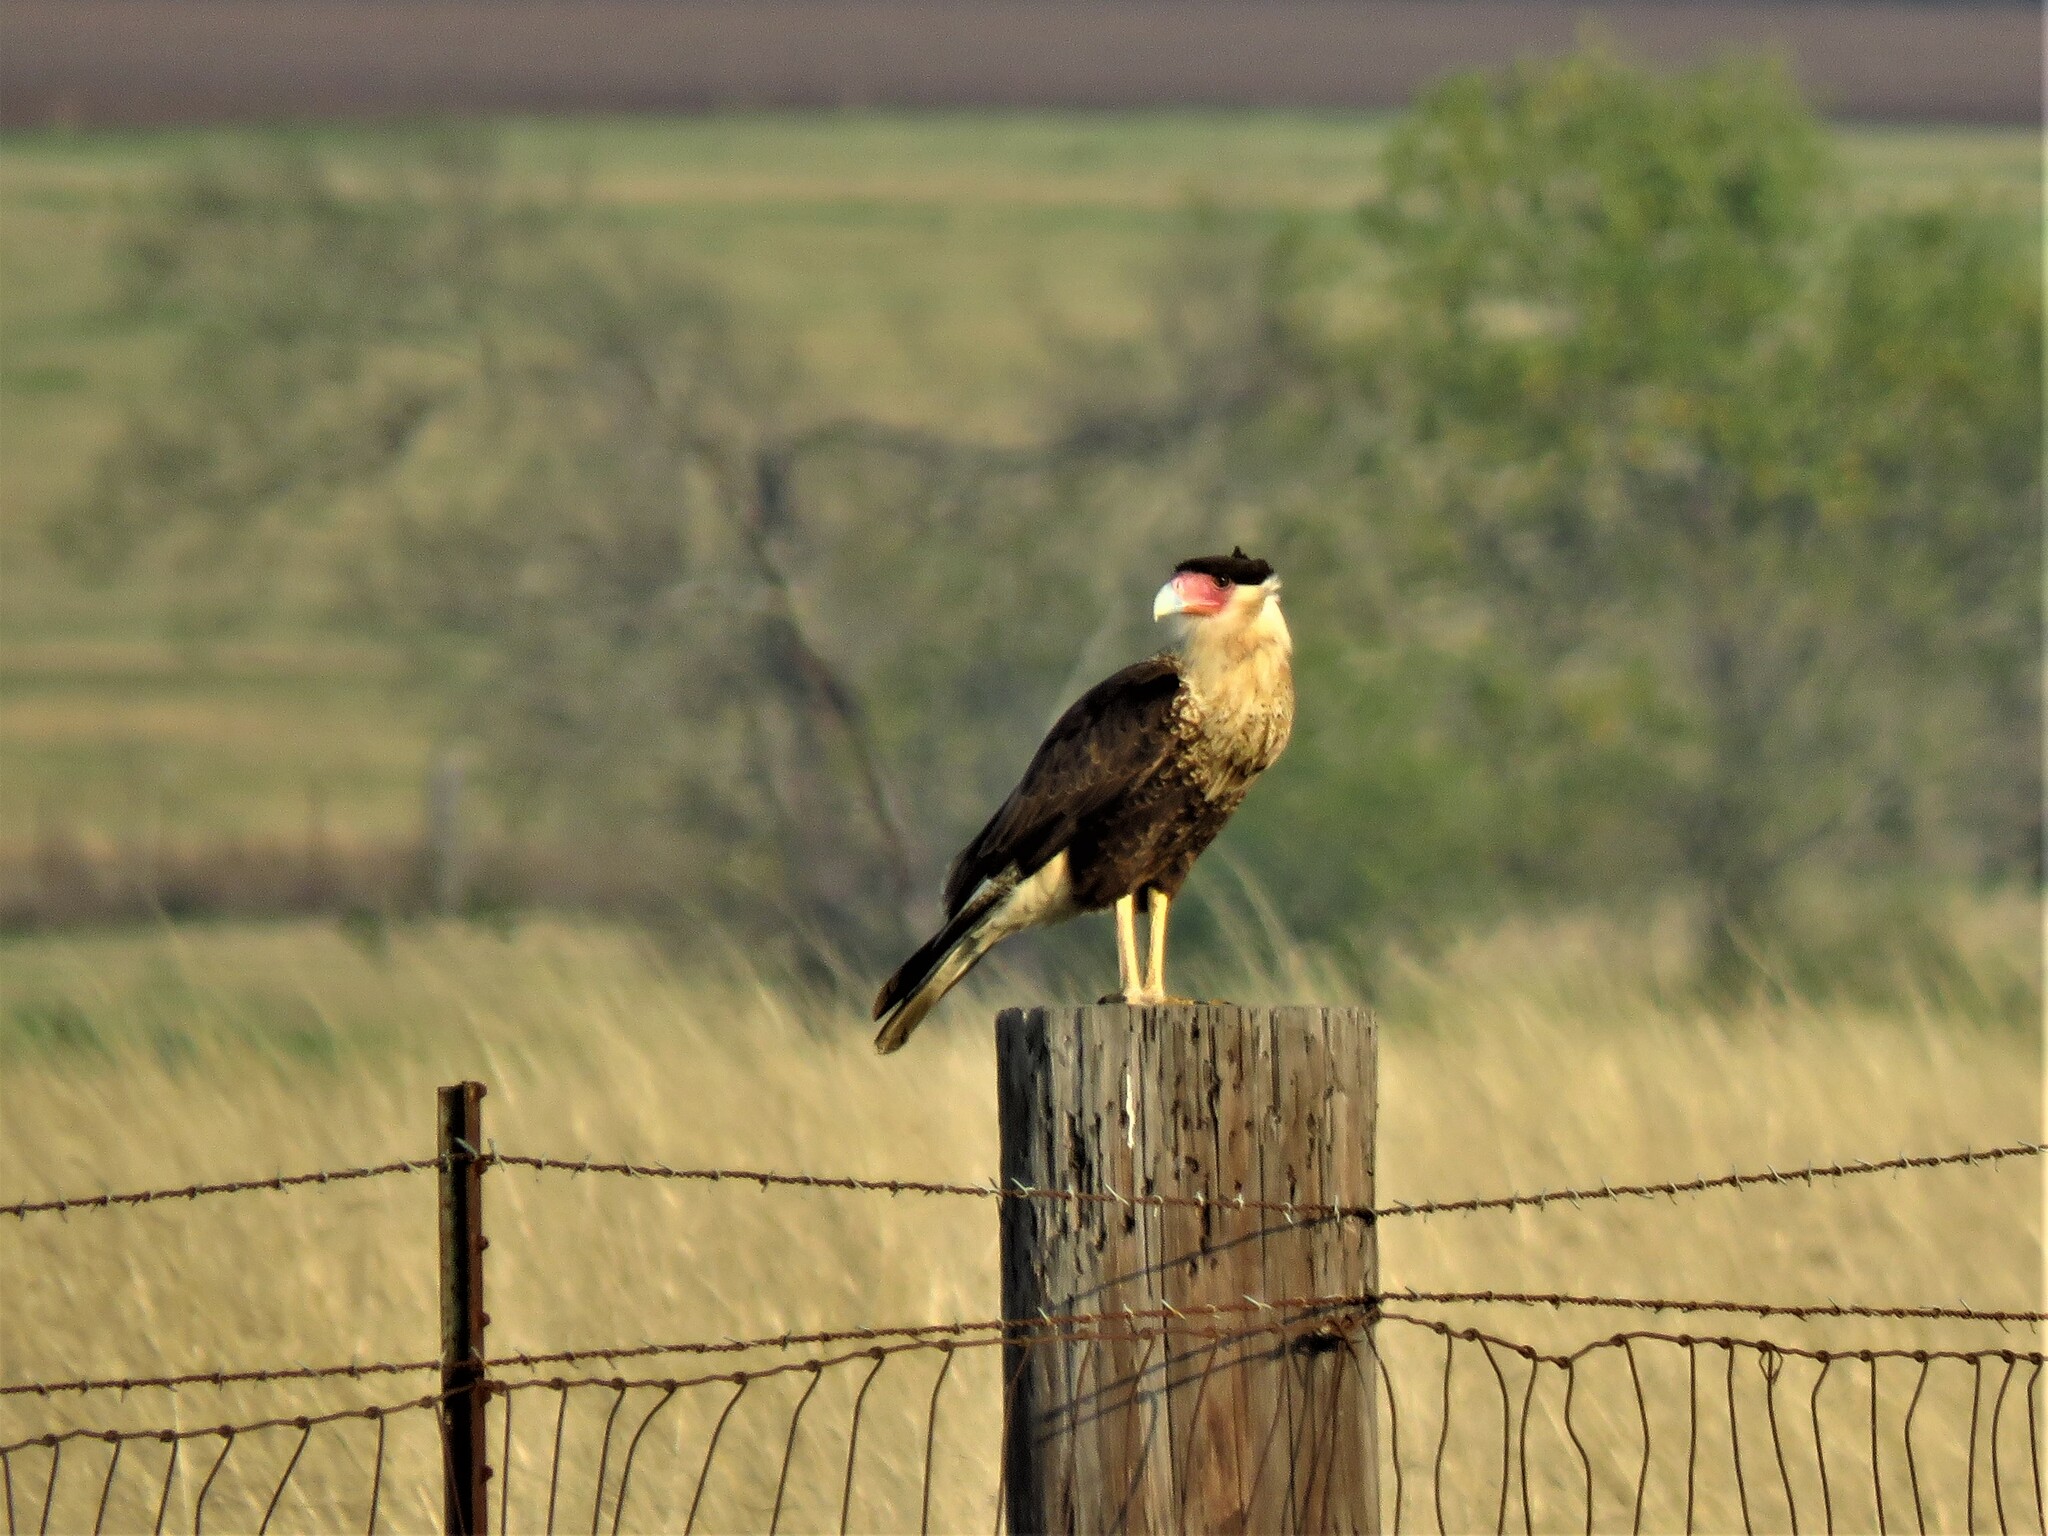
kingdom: Animalia
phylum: Chordata
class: Aves
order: Falconiformes
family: Falconidae
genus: Caracara
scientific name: Caracara plancus
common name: Southern caracara
